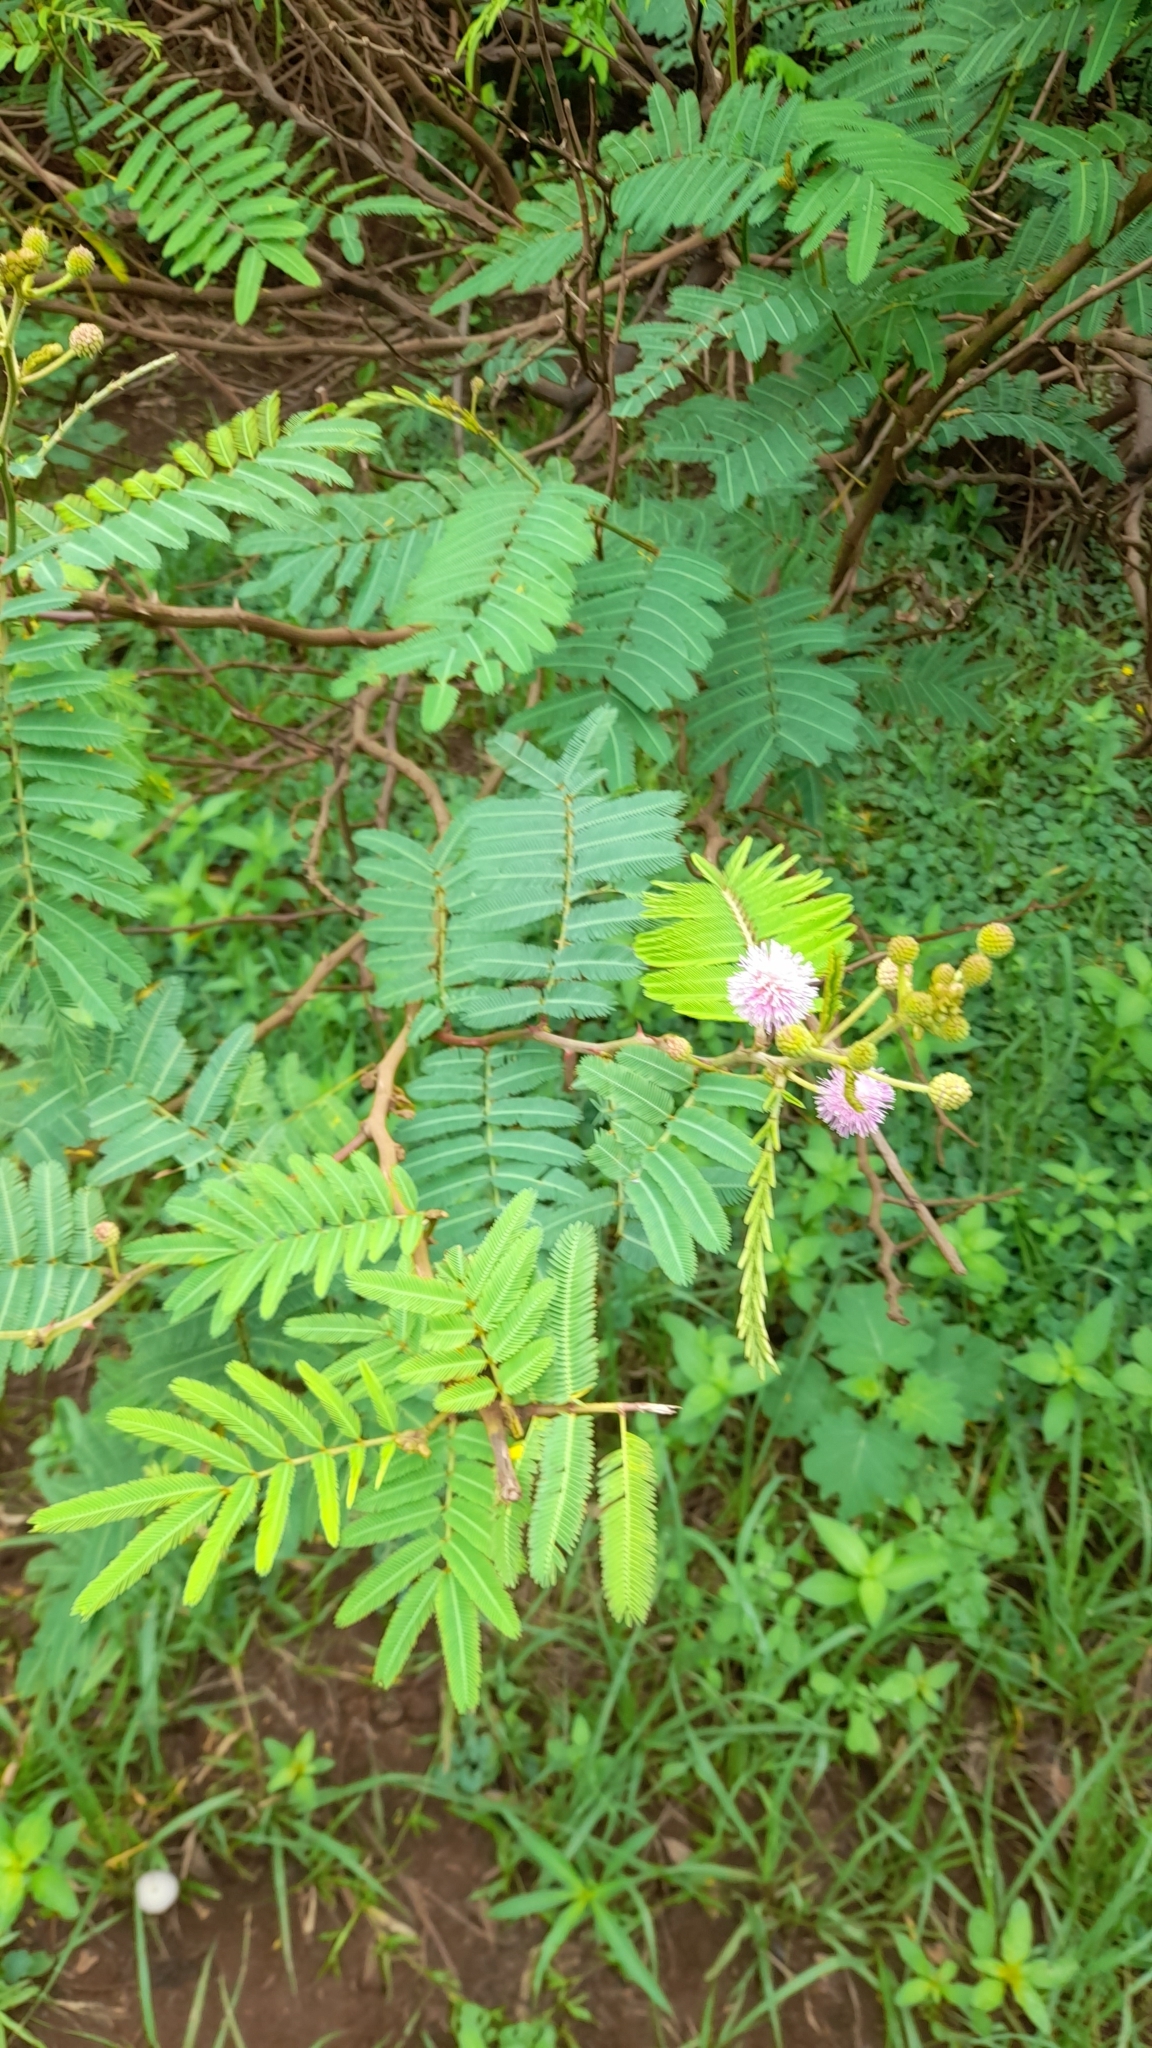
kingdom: Plantae
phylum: Tracheophyta
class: Magnoliopsida
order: Fabales
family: Fabaceae
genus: Mimosa
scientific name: Mimosa pigra
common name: Black mimosa
